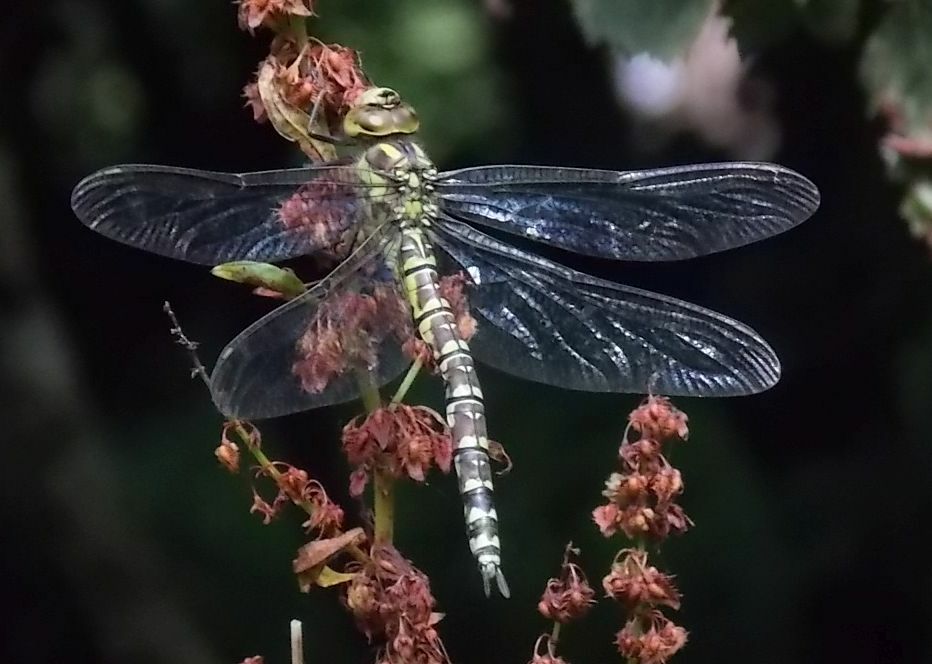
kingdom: Animalia
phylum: Arthropoda
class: Insecta
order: Odonata
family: Aeshnidae
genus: Aeshna
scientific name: Aeshna cyanea
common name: Southern hawker
